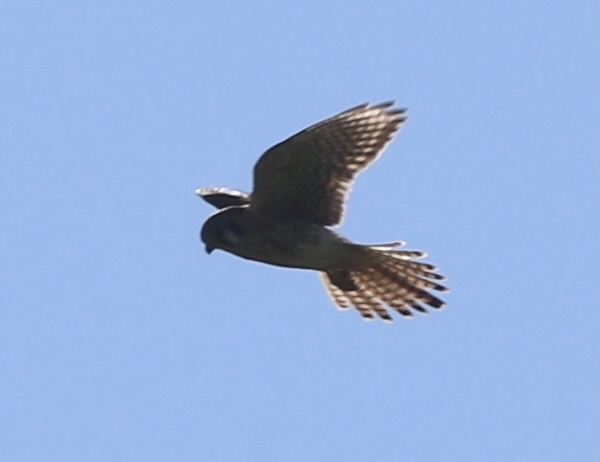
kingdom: Animalia
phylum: Chordata
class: Aves
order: Falconiformes
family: Falconidae
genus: Falco
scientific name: Falco sparverius
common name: American kestrel
